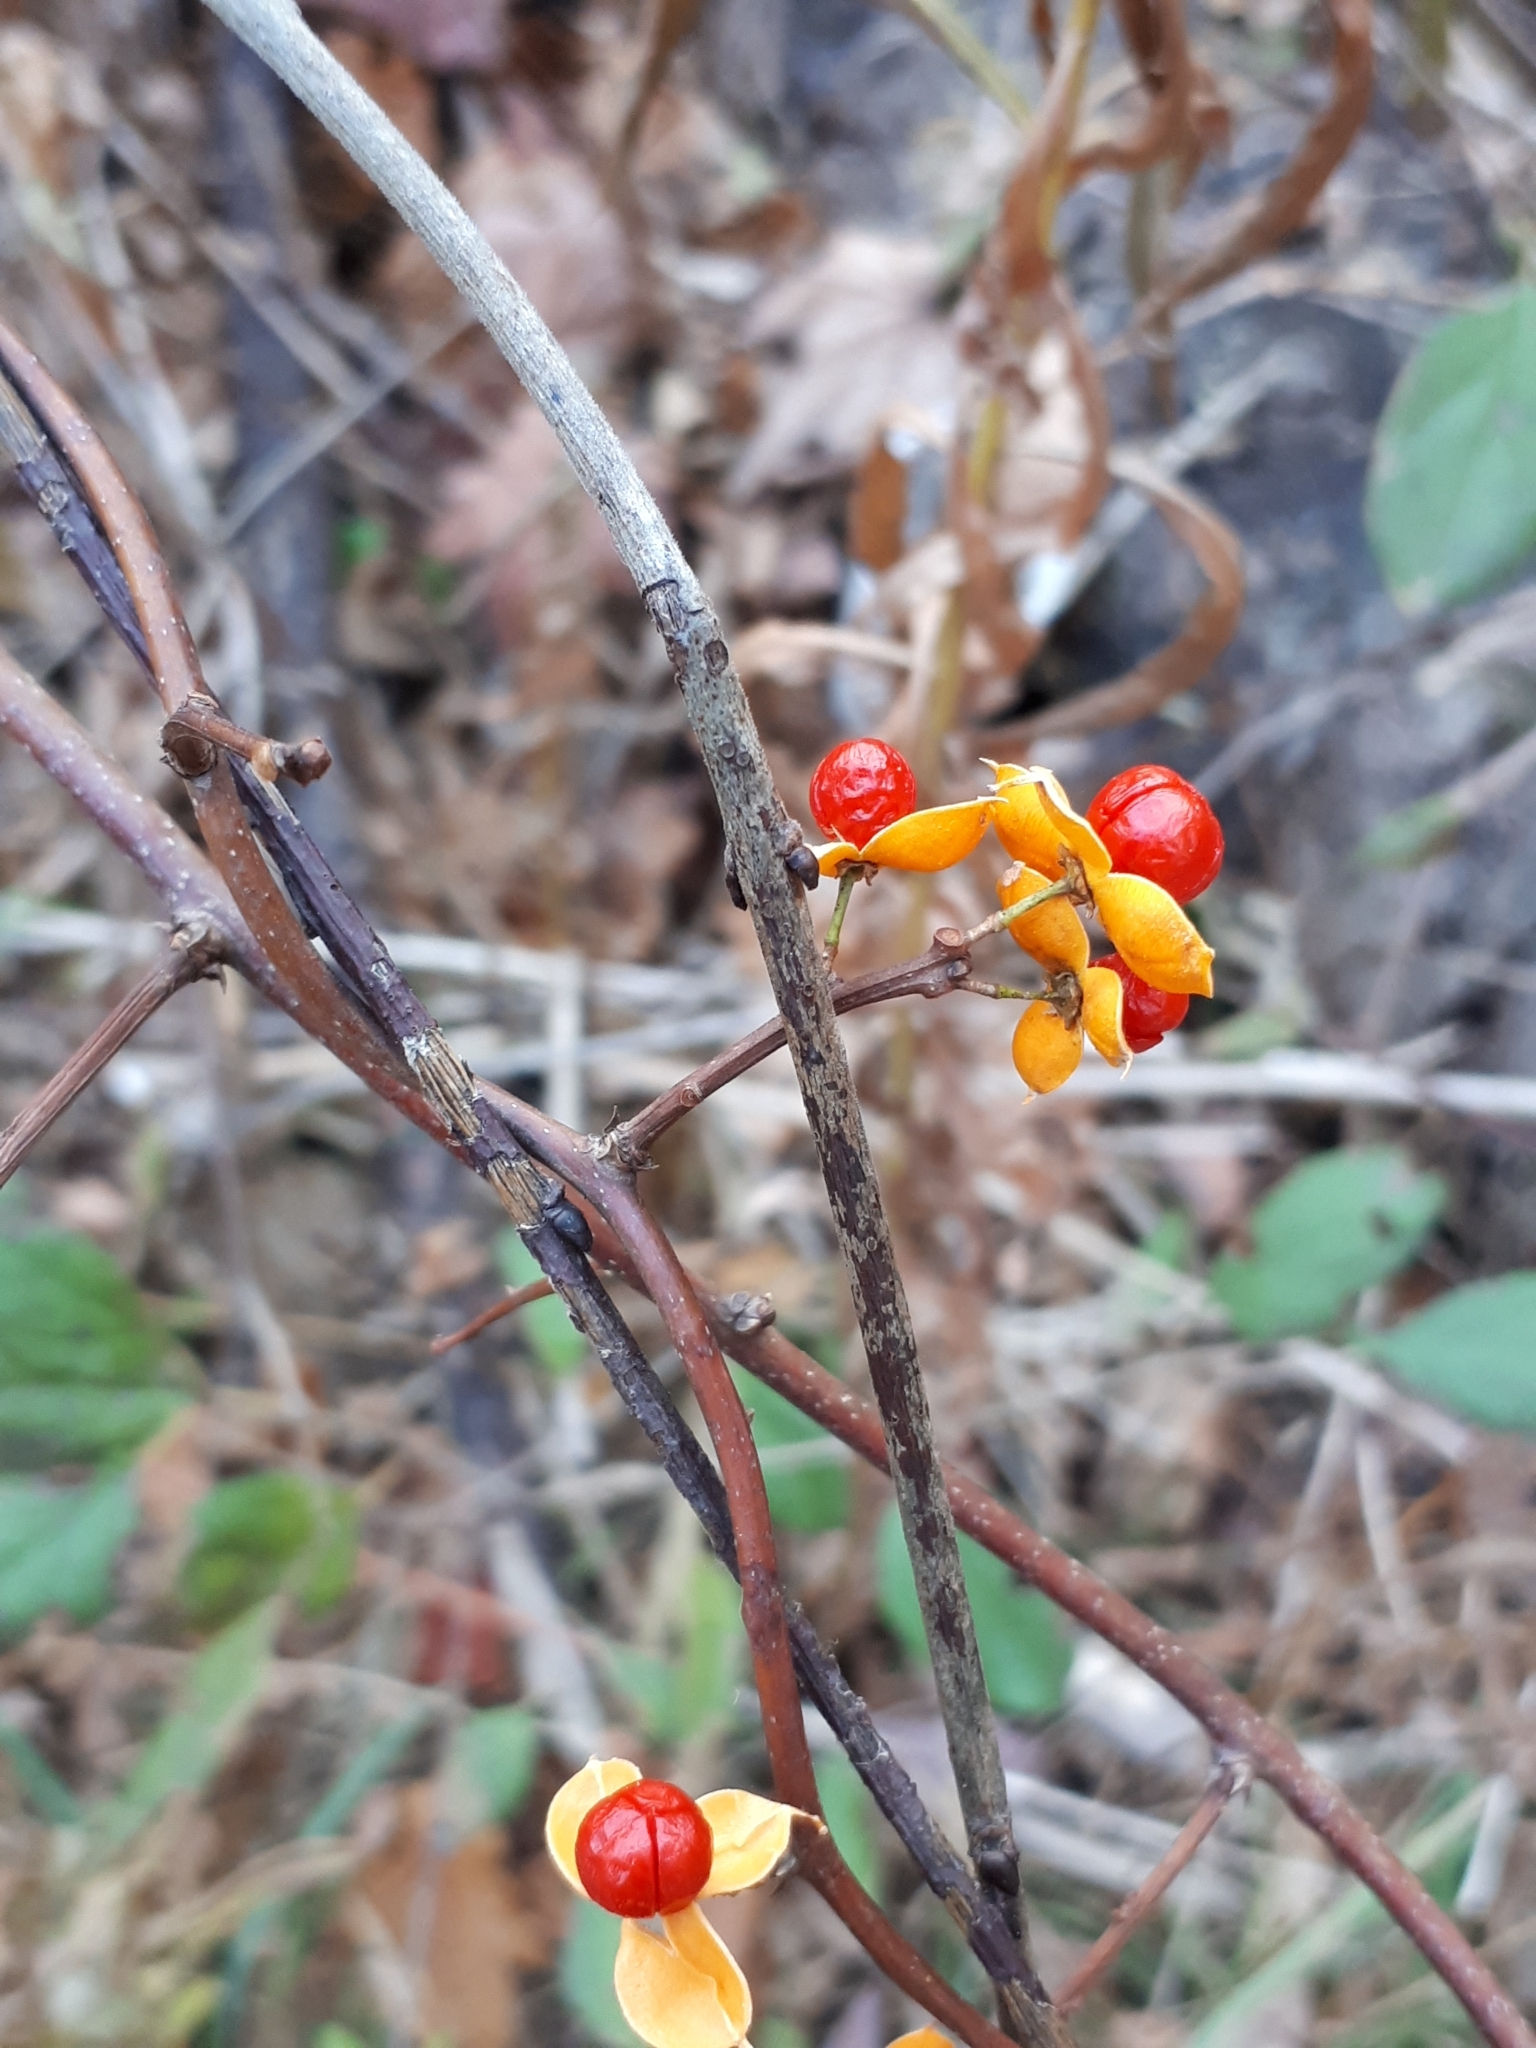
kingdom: Plantae
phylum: Tracheophyta
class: Magnoliopsida
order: Celastrales
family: Celastraceae
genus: Celastrus
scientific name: Celastrus orbiculatus
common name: Oriental bittersweet
